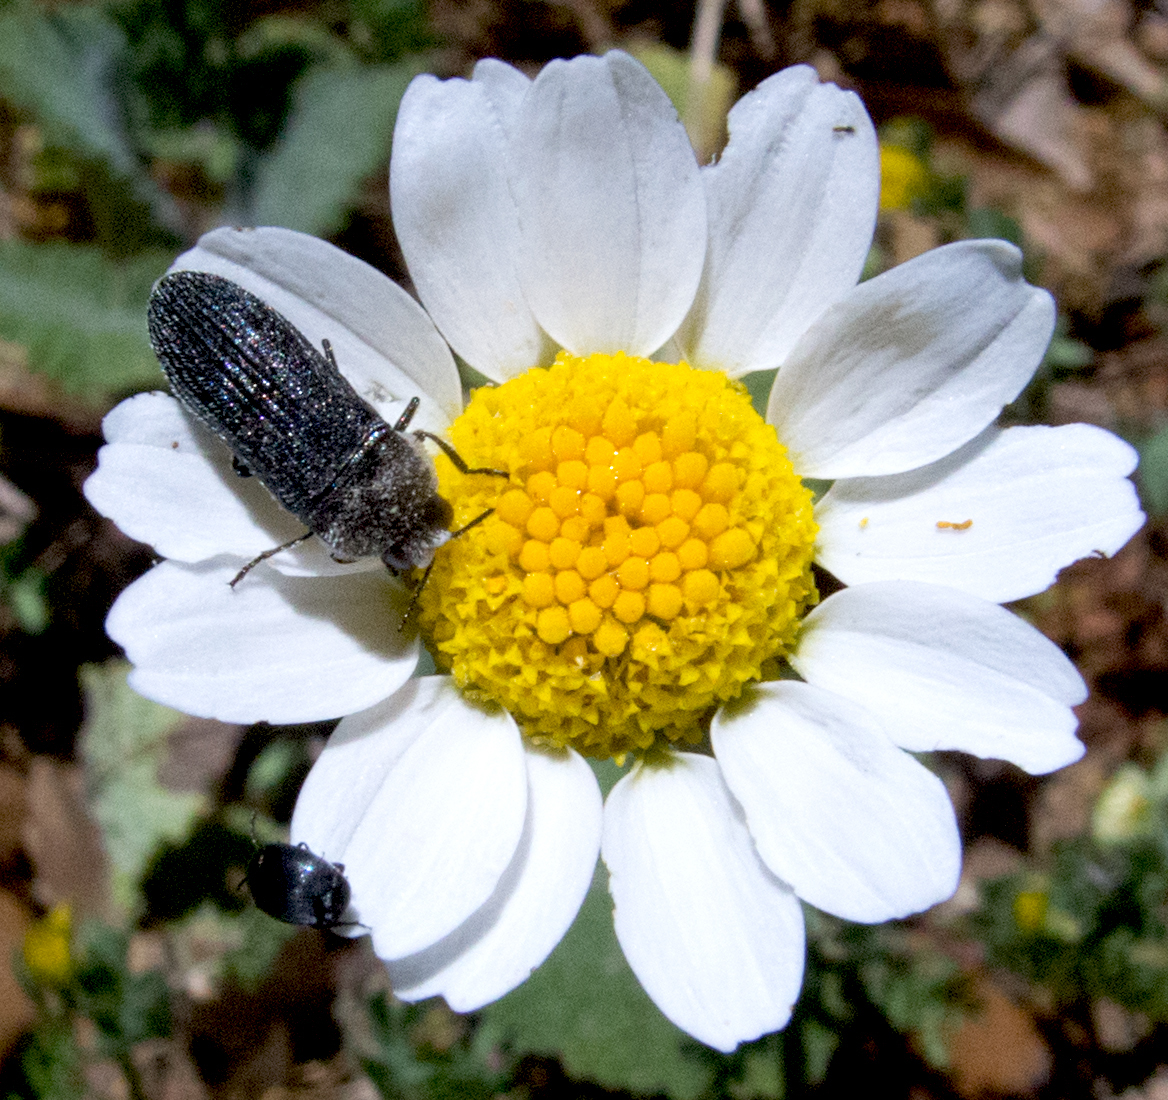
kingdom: Animalia
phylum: Arthropoda
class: Insecta
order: Coleoptera
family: Buprestidae
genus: Acmaeoderella
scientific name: Acmaeoderella villosula
